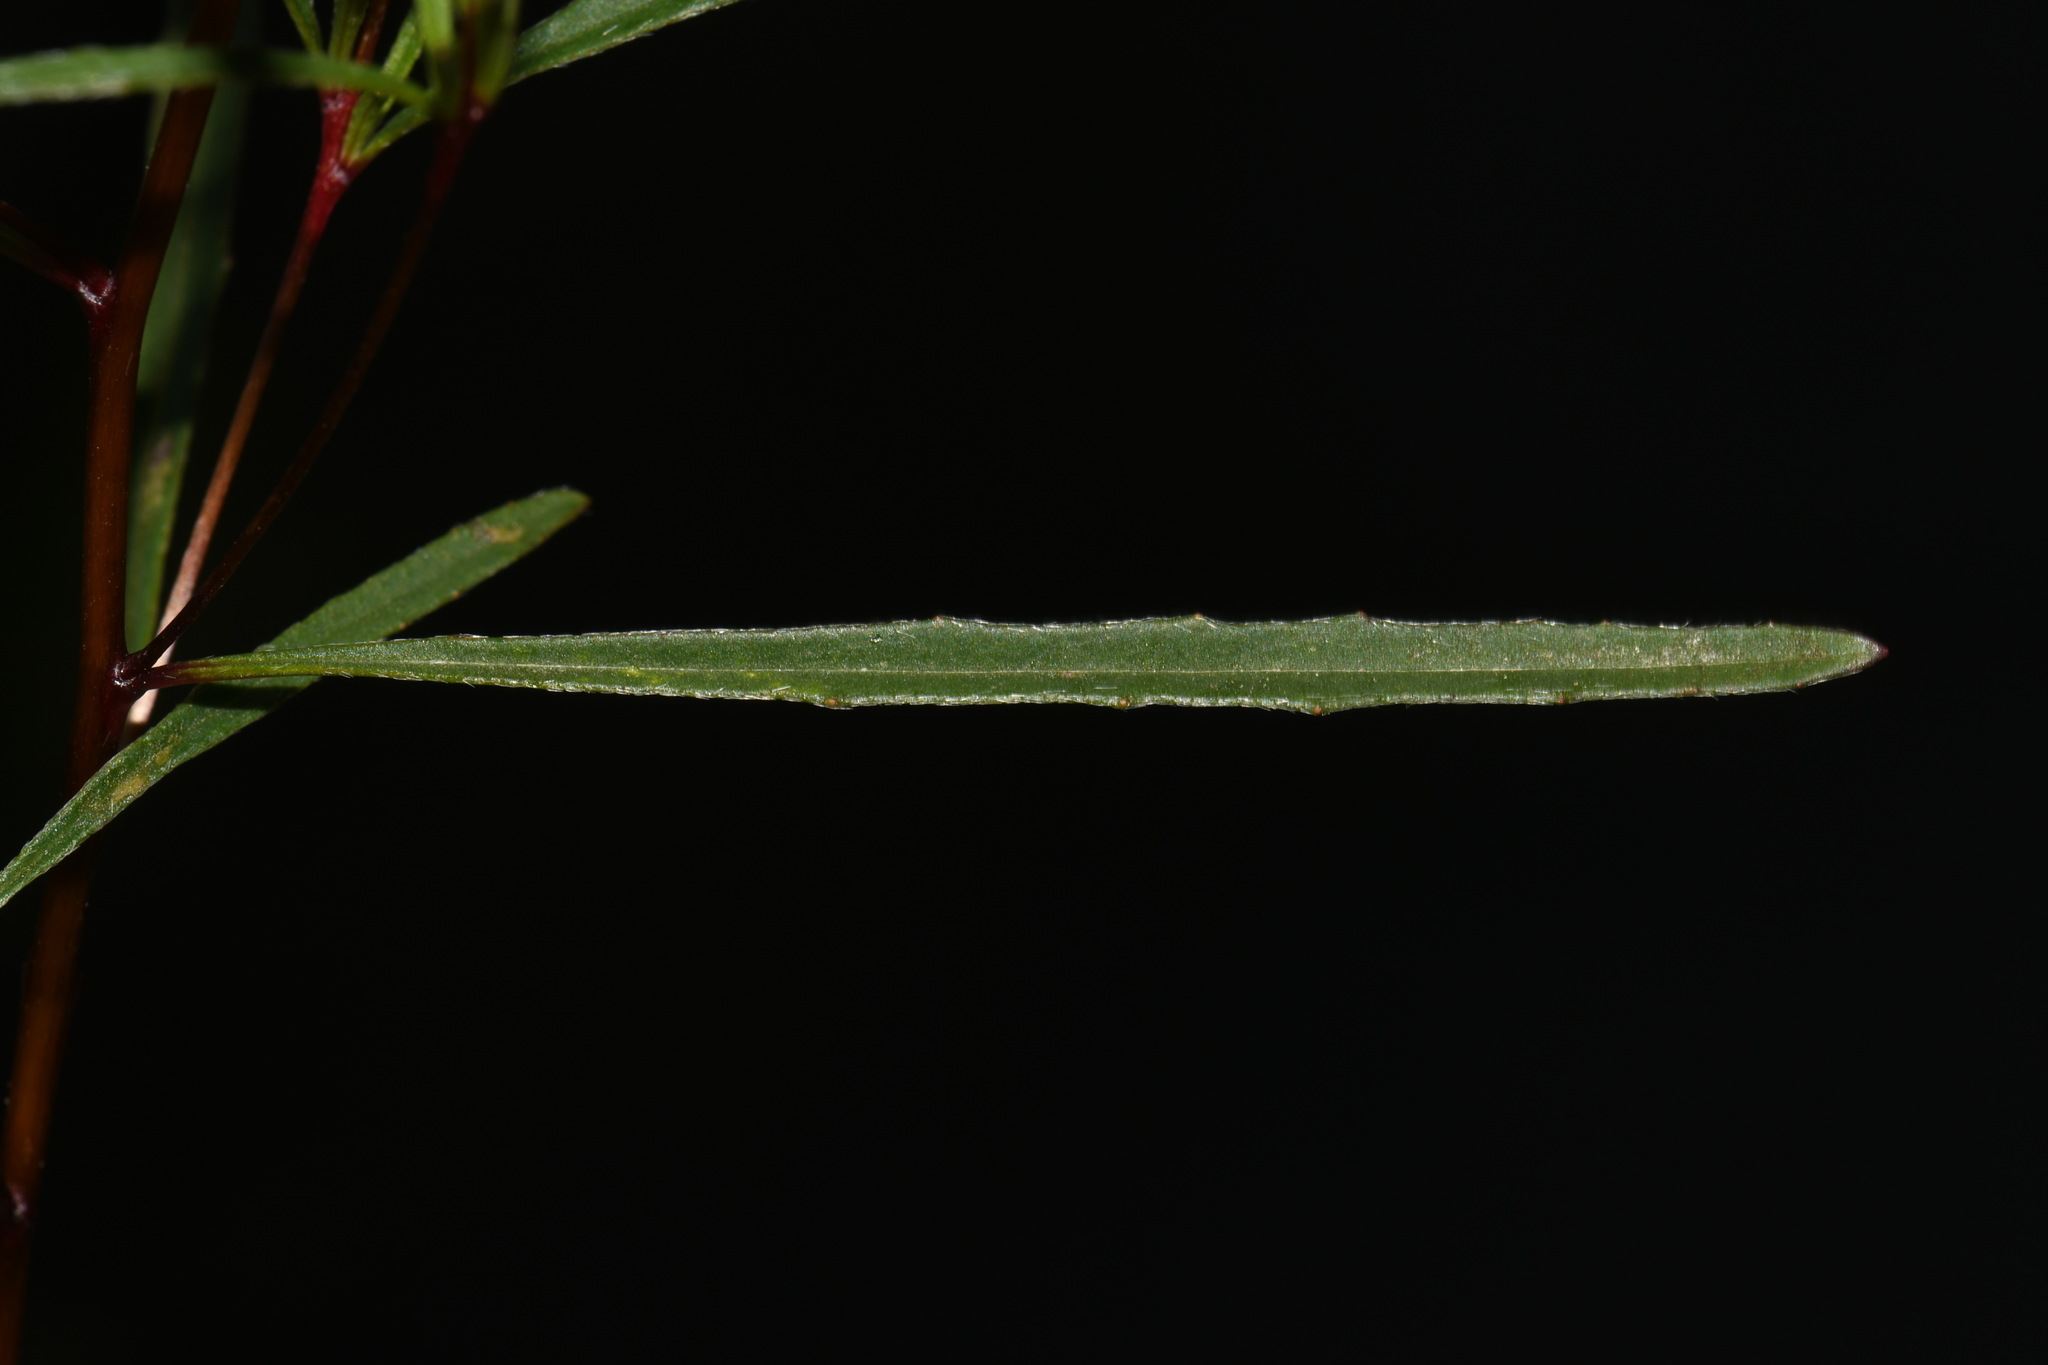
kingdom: Plantae
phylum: Tracheophyta
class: Magnoliopsida
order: Myrtales
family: Onagraceae
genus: Oenothera
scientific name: Oenothera fruticosa
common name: Southern sundrops
